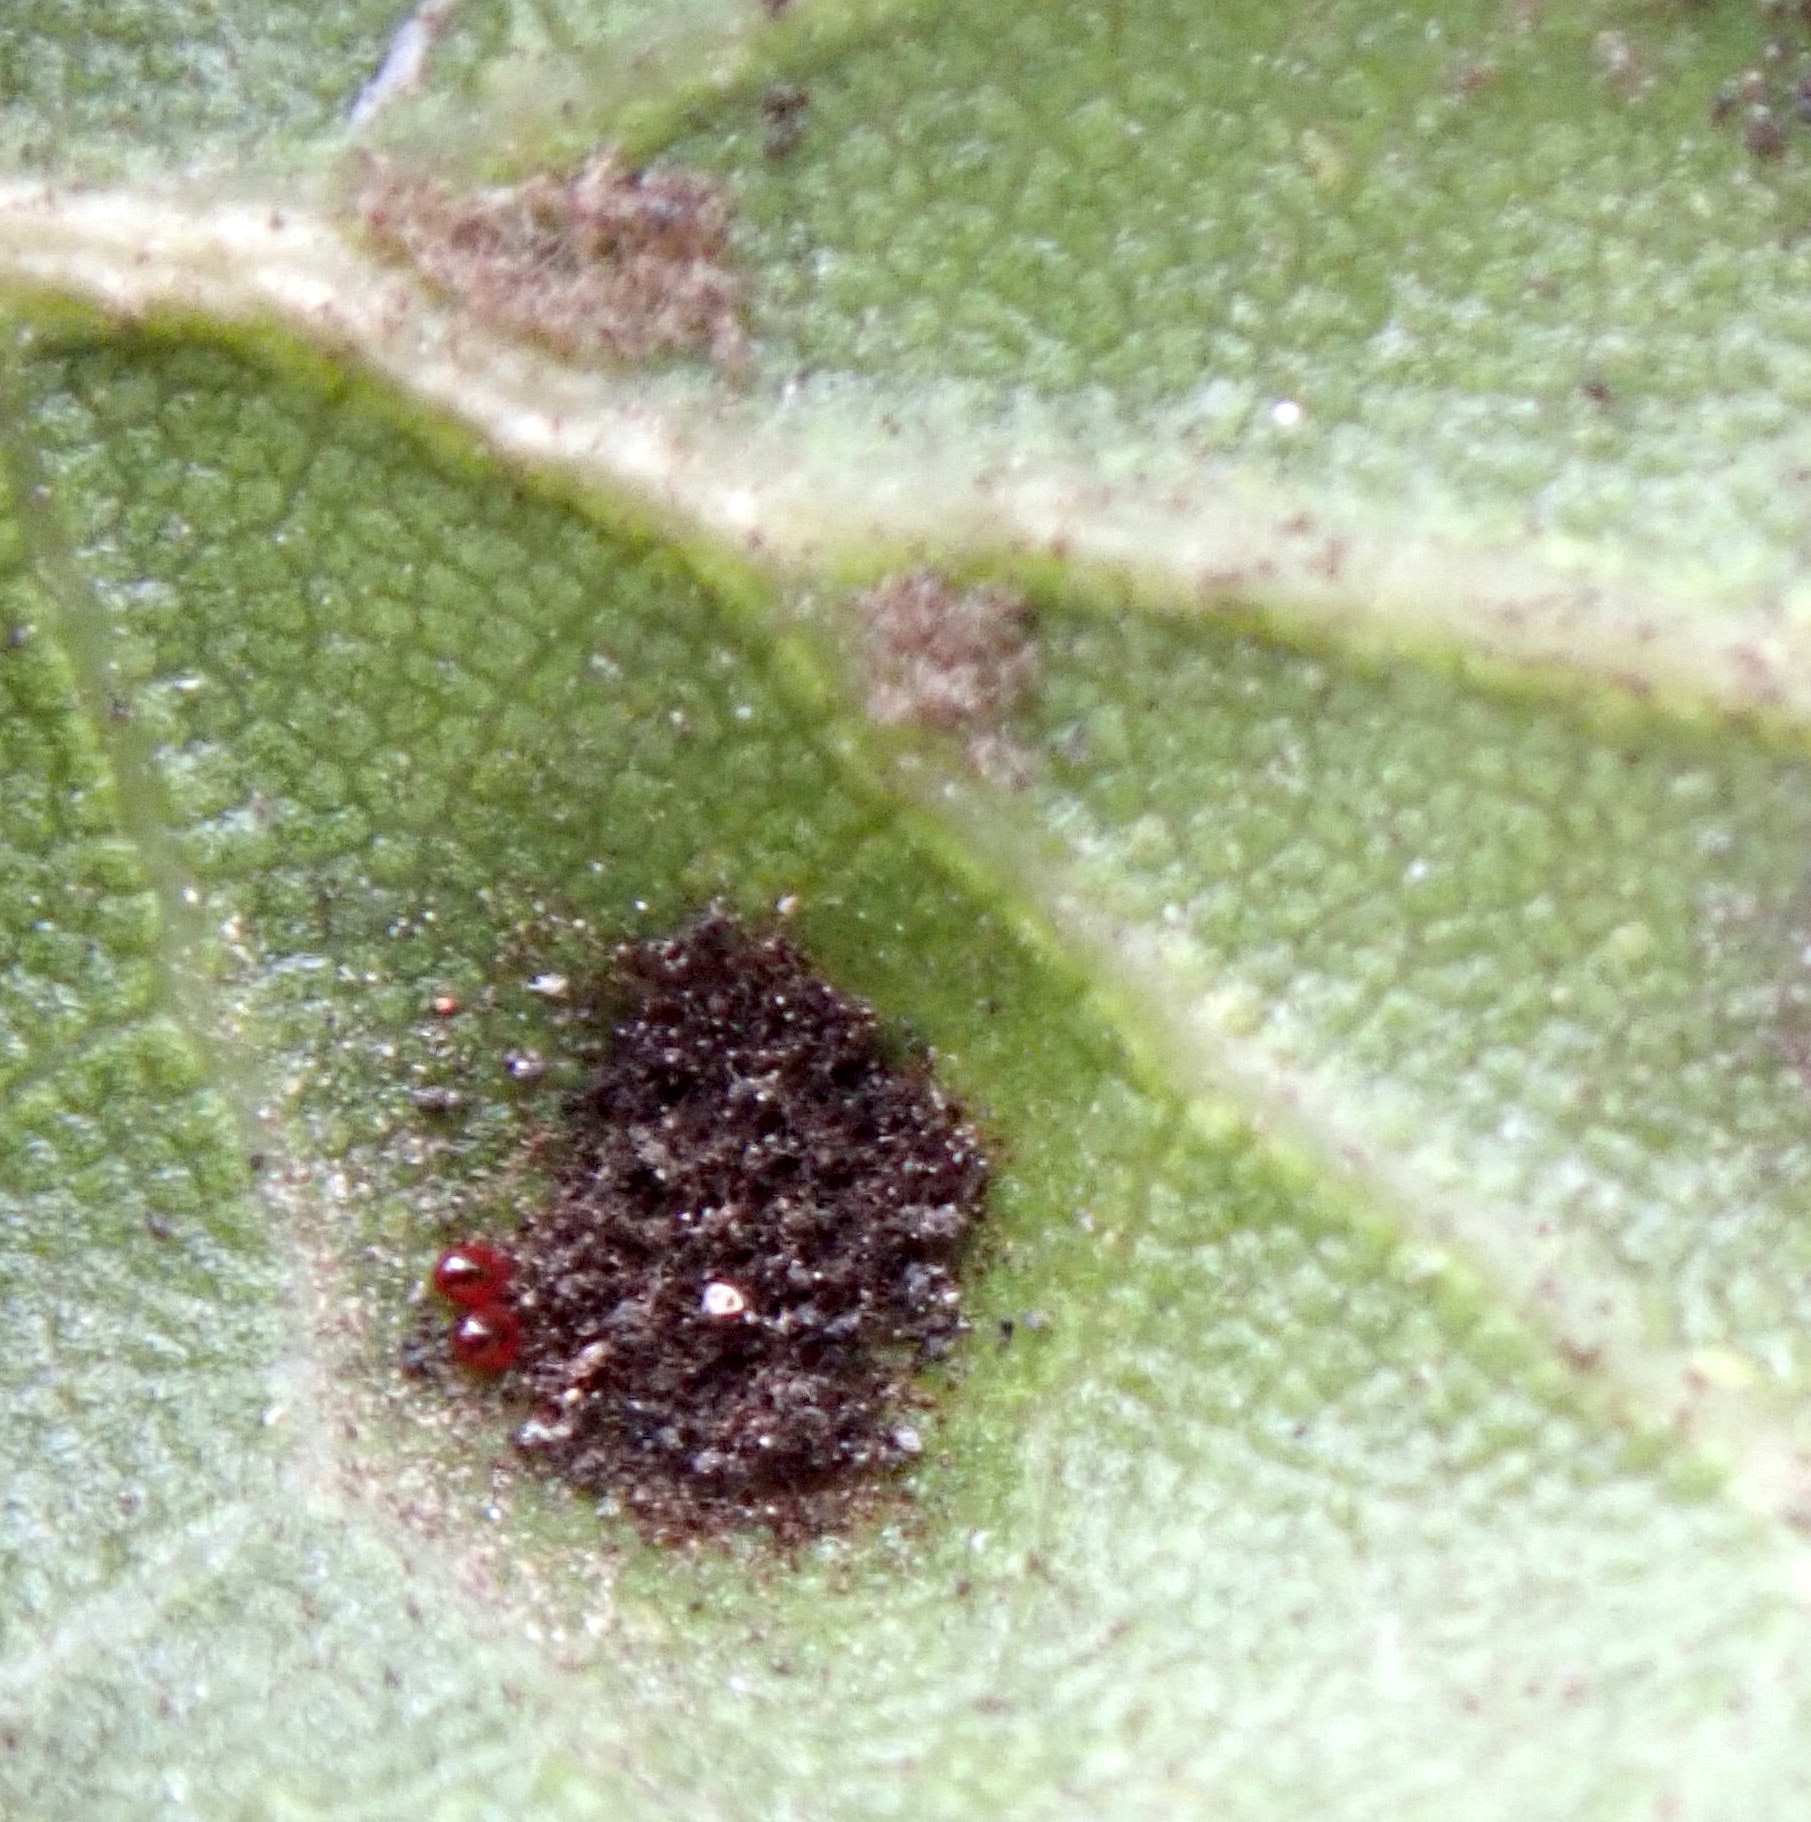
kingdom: Animalia
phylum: Arthropoda
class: Arachnida
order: Trombidiformes
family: Eriophyidae
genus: Aceria
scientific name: Aceria
